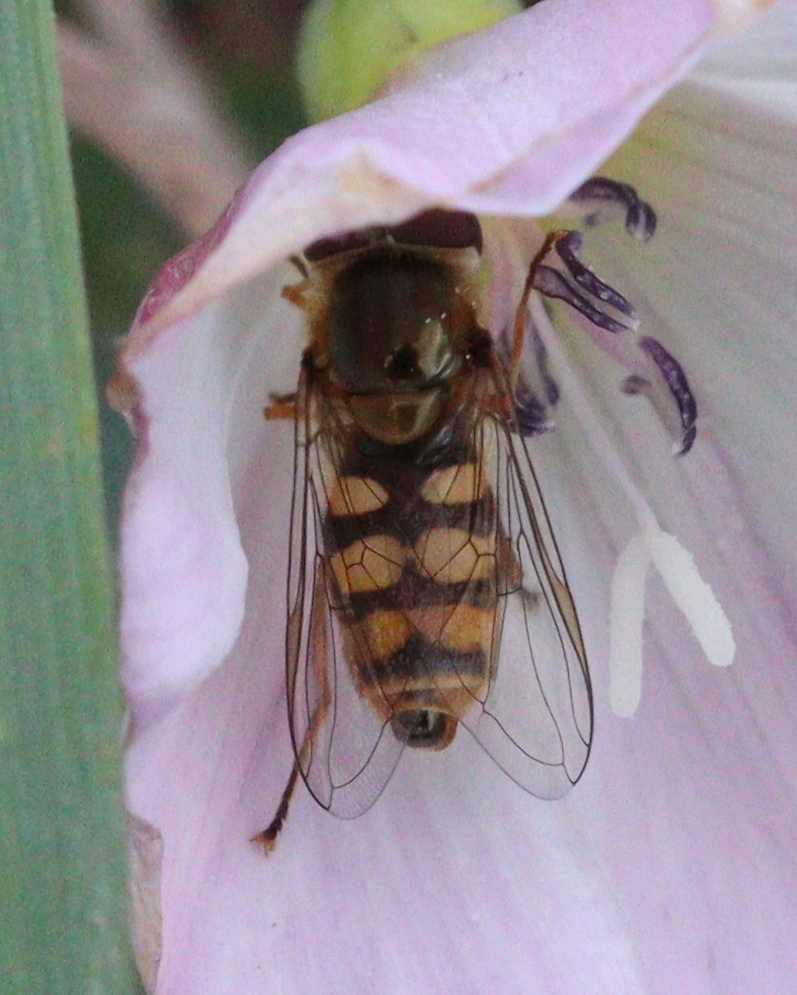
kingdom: Animalia
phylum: Arthropoda
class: Insecta
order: Diptera
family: Syrphidae
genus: Eupeodes
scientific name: Eupeodes corollae
